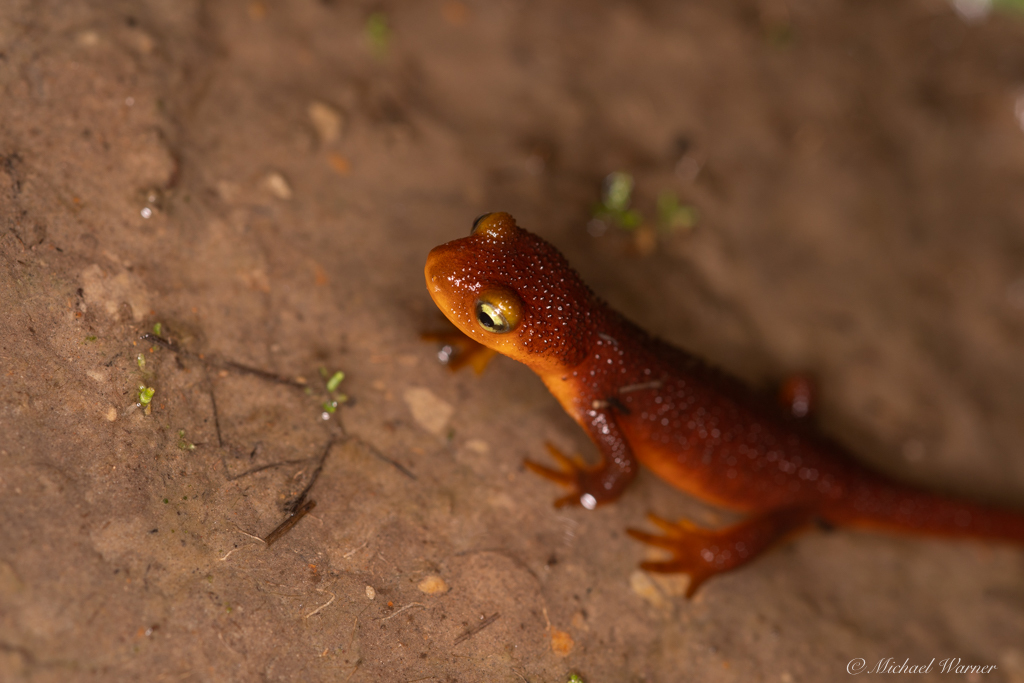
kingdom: Animalia
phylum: Chordata
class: Amphibia
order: Caudata
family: Salamandridae
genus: Taricha
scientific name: Taricha torosa
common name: California newt
